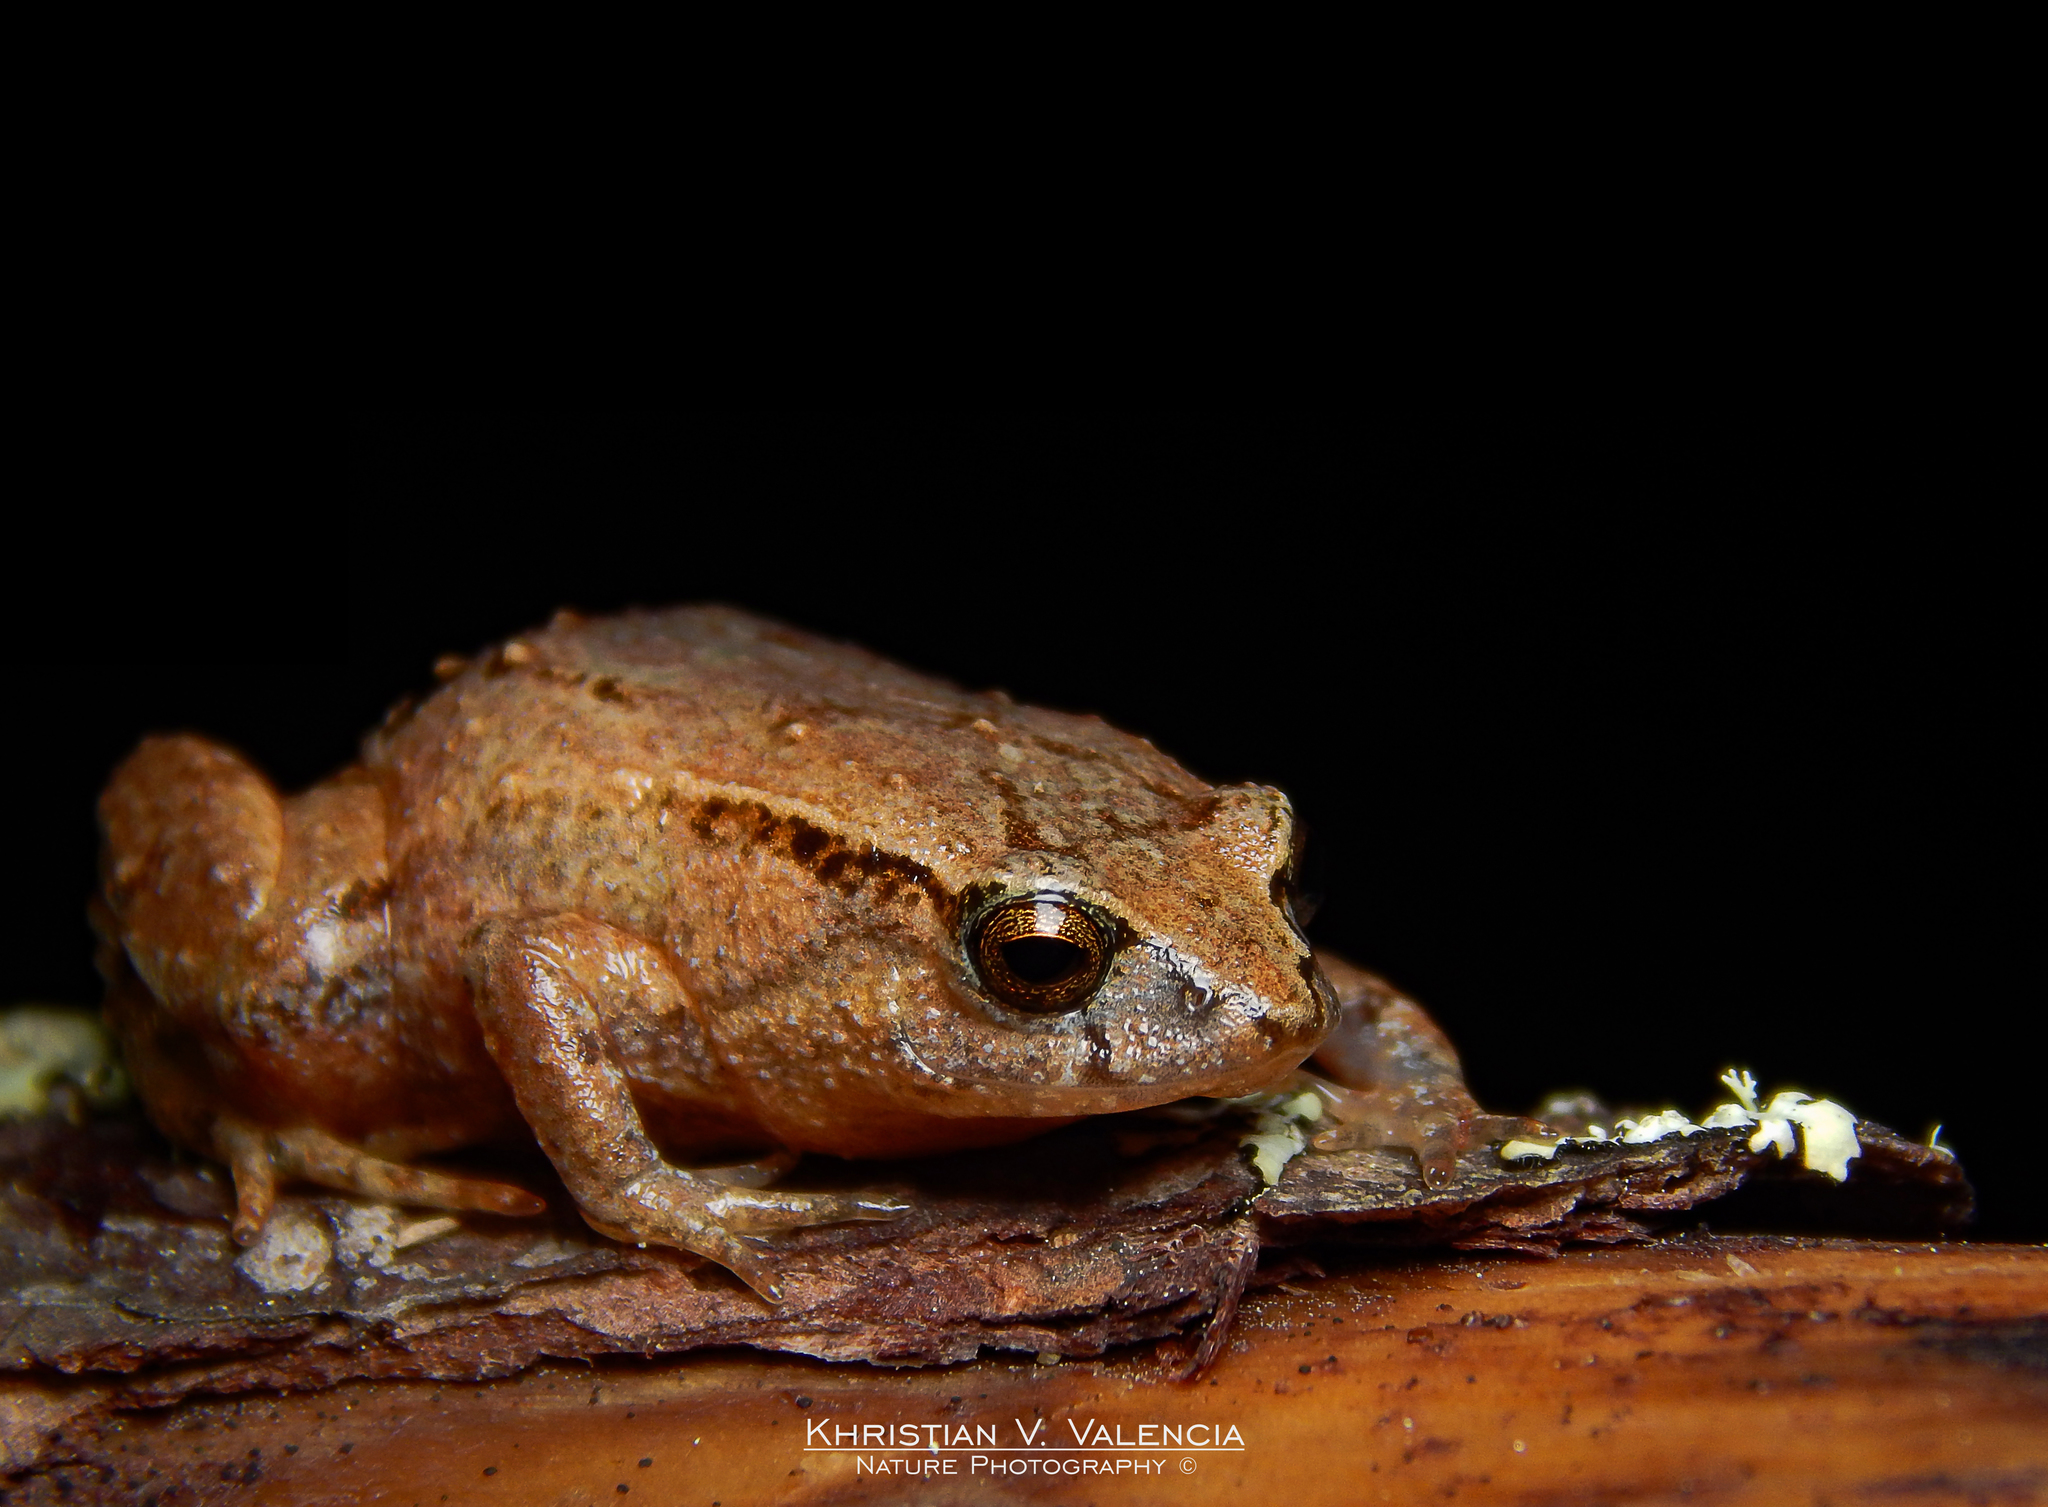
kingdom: Animalia
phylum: Chordata
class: Amphibia
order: Anura
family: Craugastoridae
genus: Geobatrachus
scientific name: Geobatrachus walkeri
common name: Walker's sierra frog
